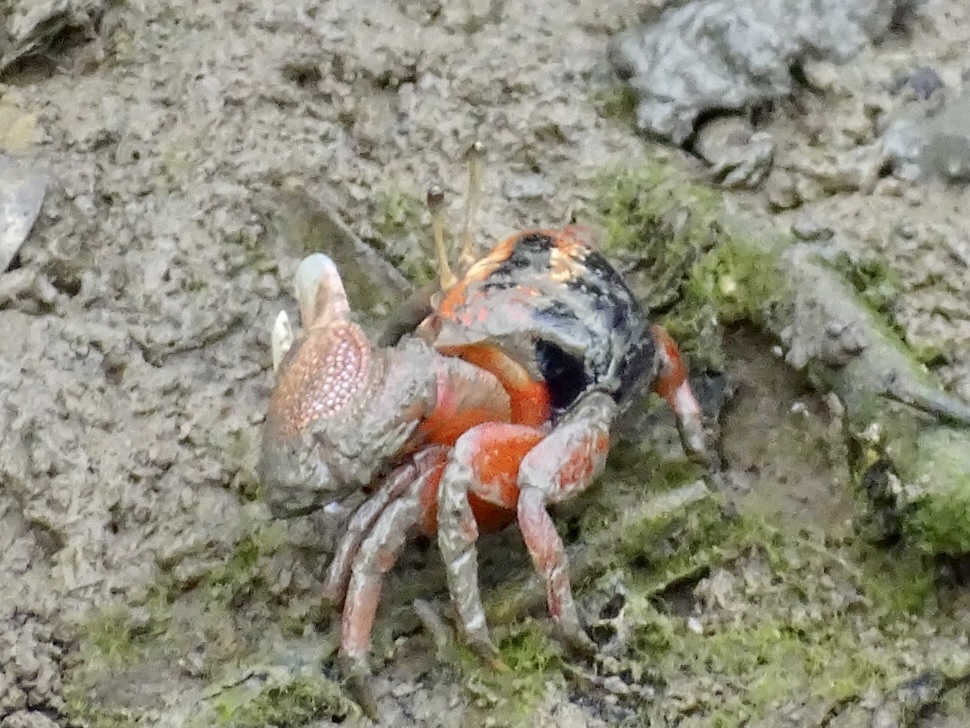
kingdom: Animalia
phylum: Arthropoda
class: Malacostraca
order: Decapoda
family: Ocypodidae
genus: Tubuca
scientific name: Tubuca arcuata
